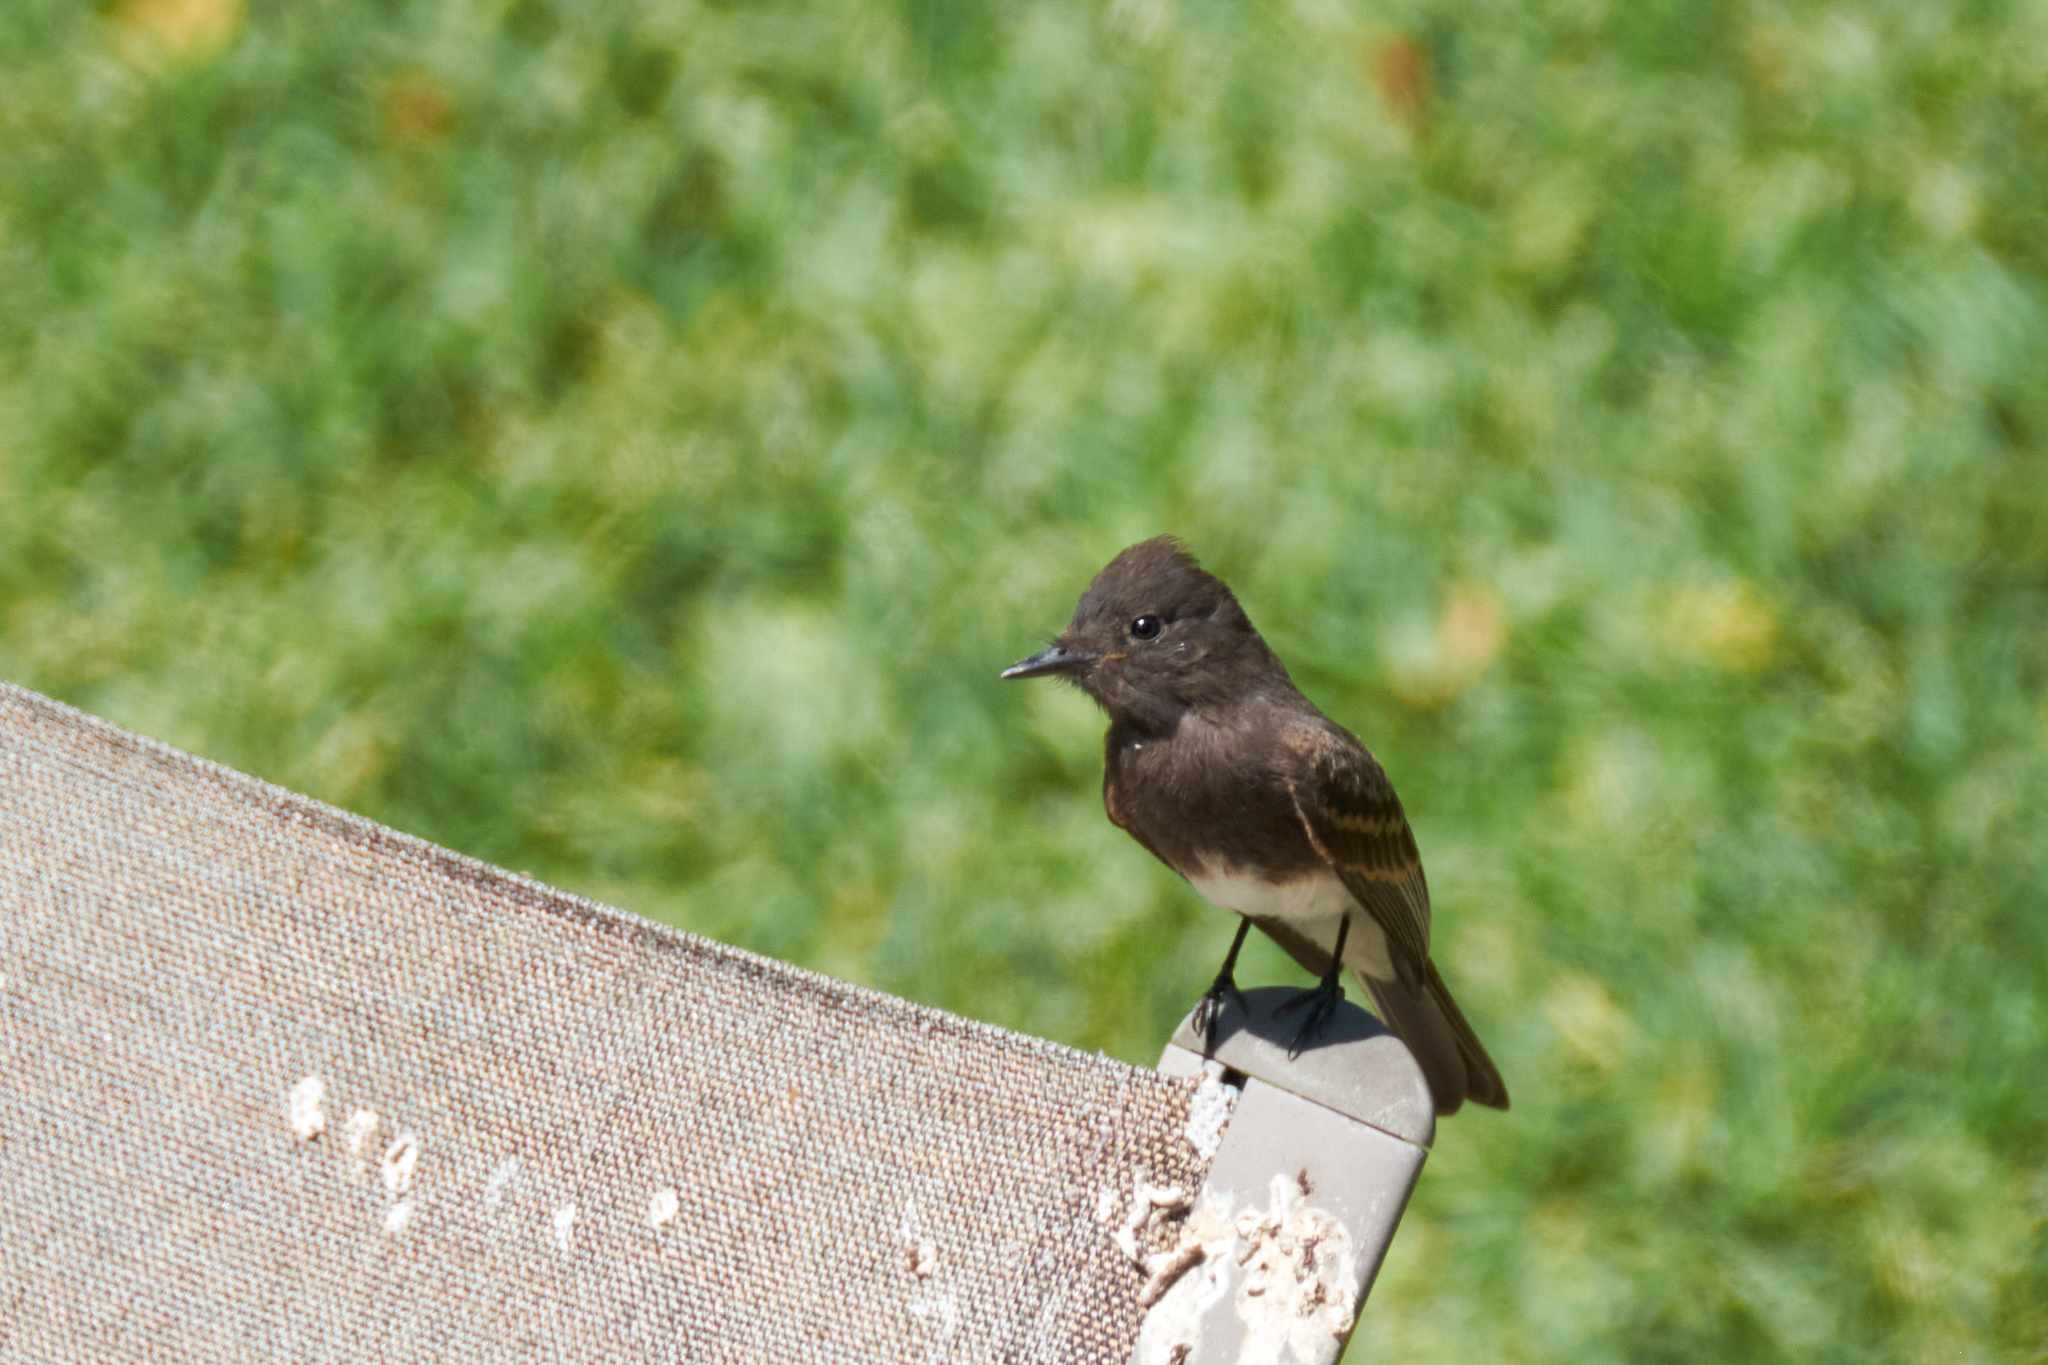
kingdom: Animalia
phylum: Chordata
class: Aves
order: Passeriformes
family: Tyrannidae
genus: Sayornis
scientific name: Sayornis nigricans
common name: Black phoebe
